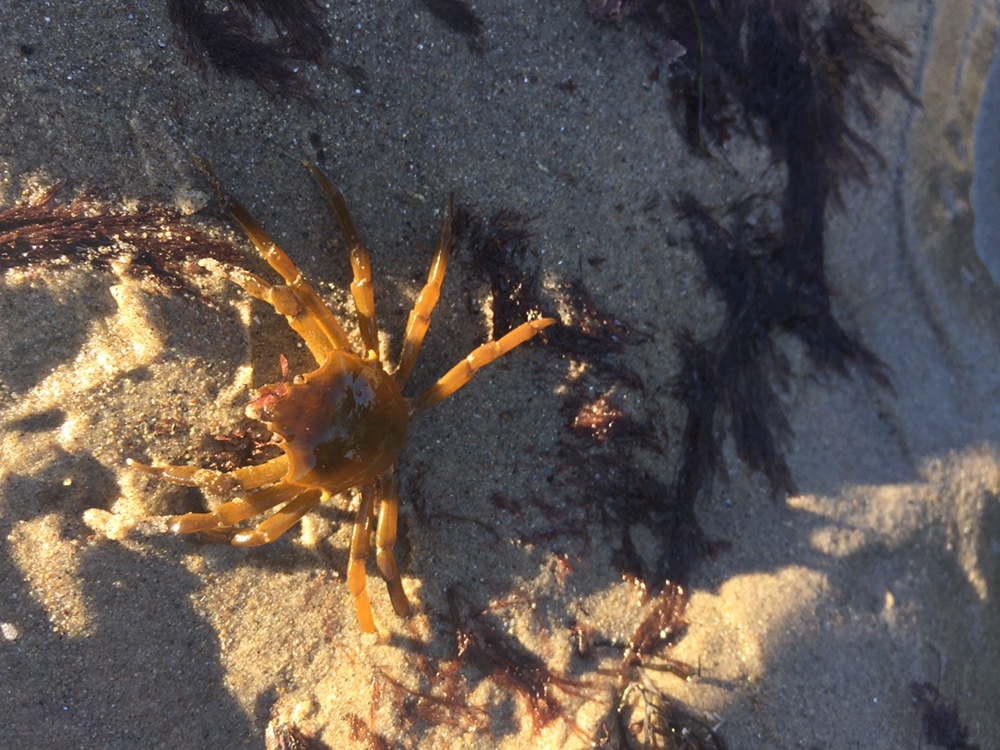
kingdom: Animalia
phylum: Arthropoda
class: Malacostraca
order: Decapoda
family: Epialtidae
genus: Pugettia
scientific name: Pugettia producta
